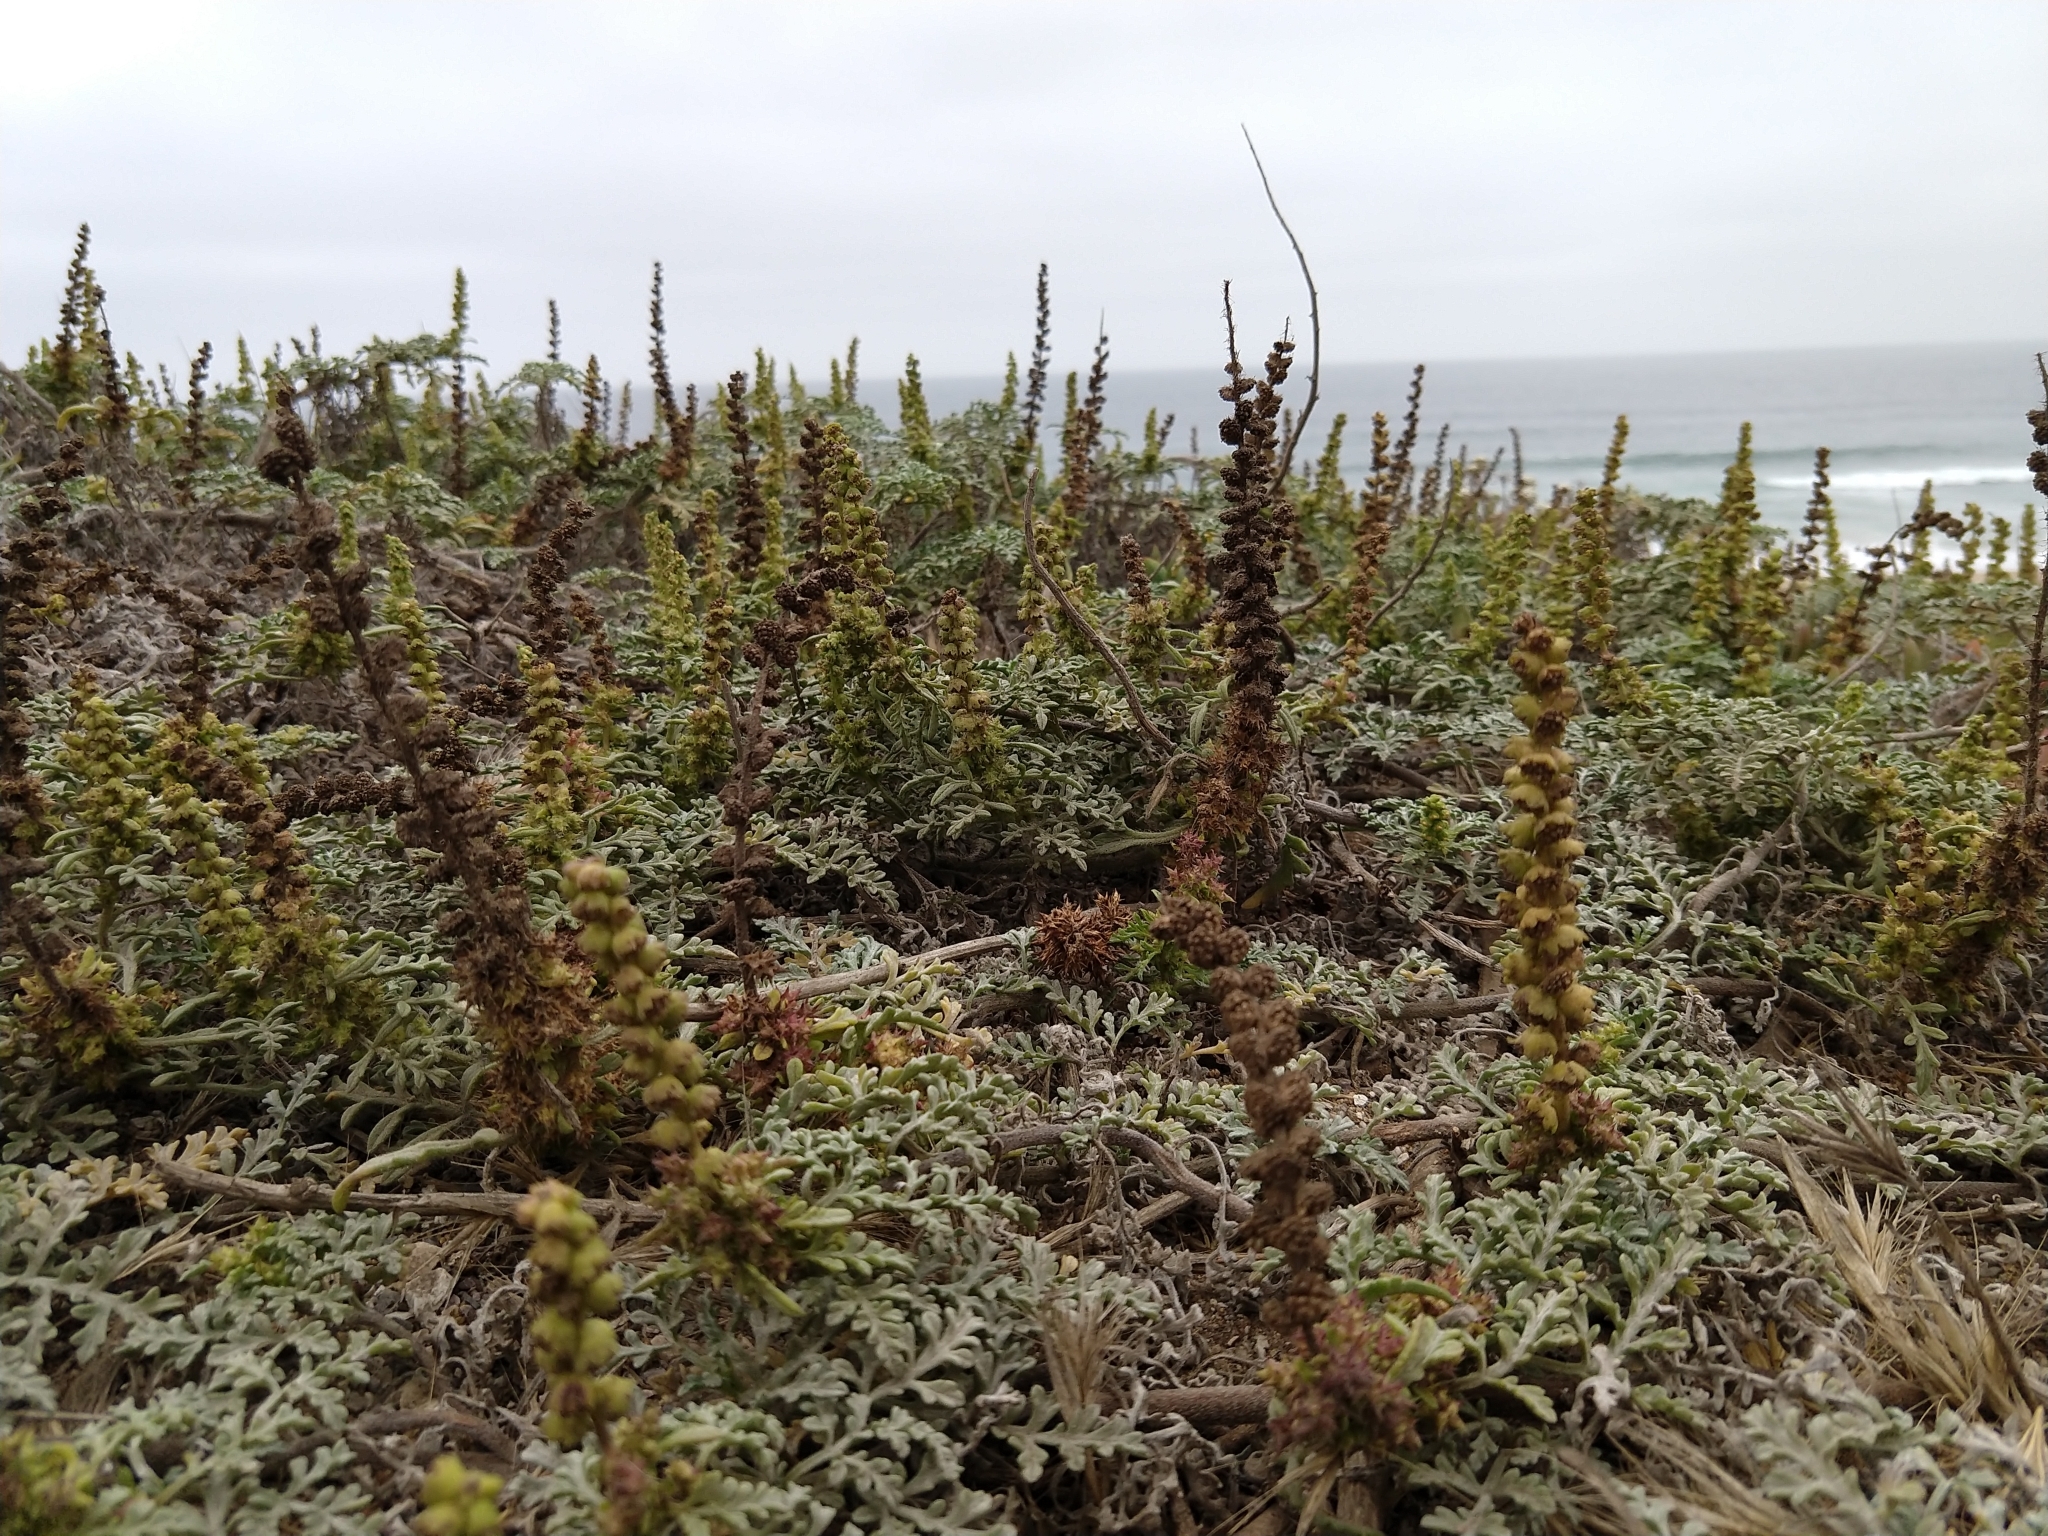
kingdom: Plantae
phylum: Tracheophyta
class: Magnoliopsida
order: Asterales
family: Asteraceae
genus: Ambrosia
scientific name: Ambrosia chamissonis
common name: Beachbur
